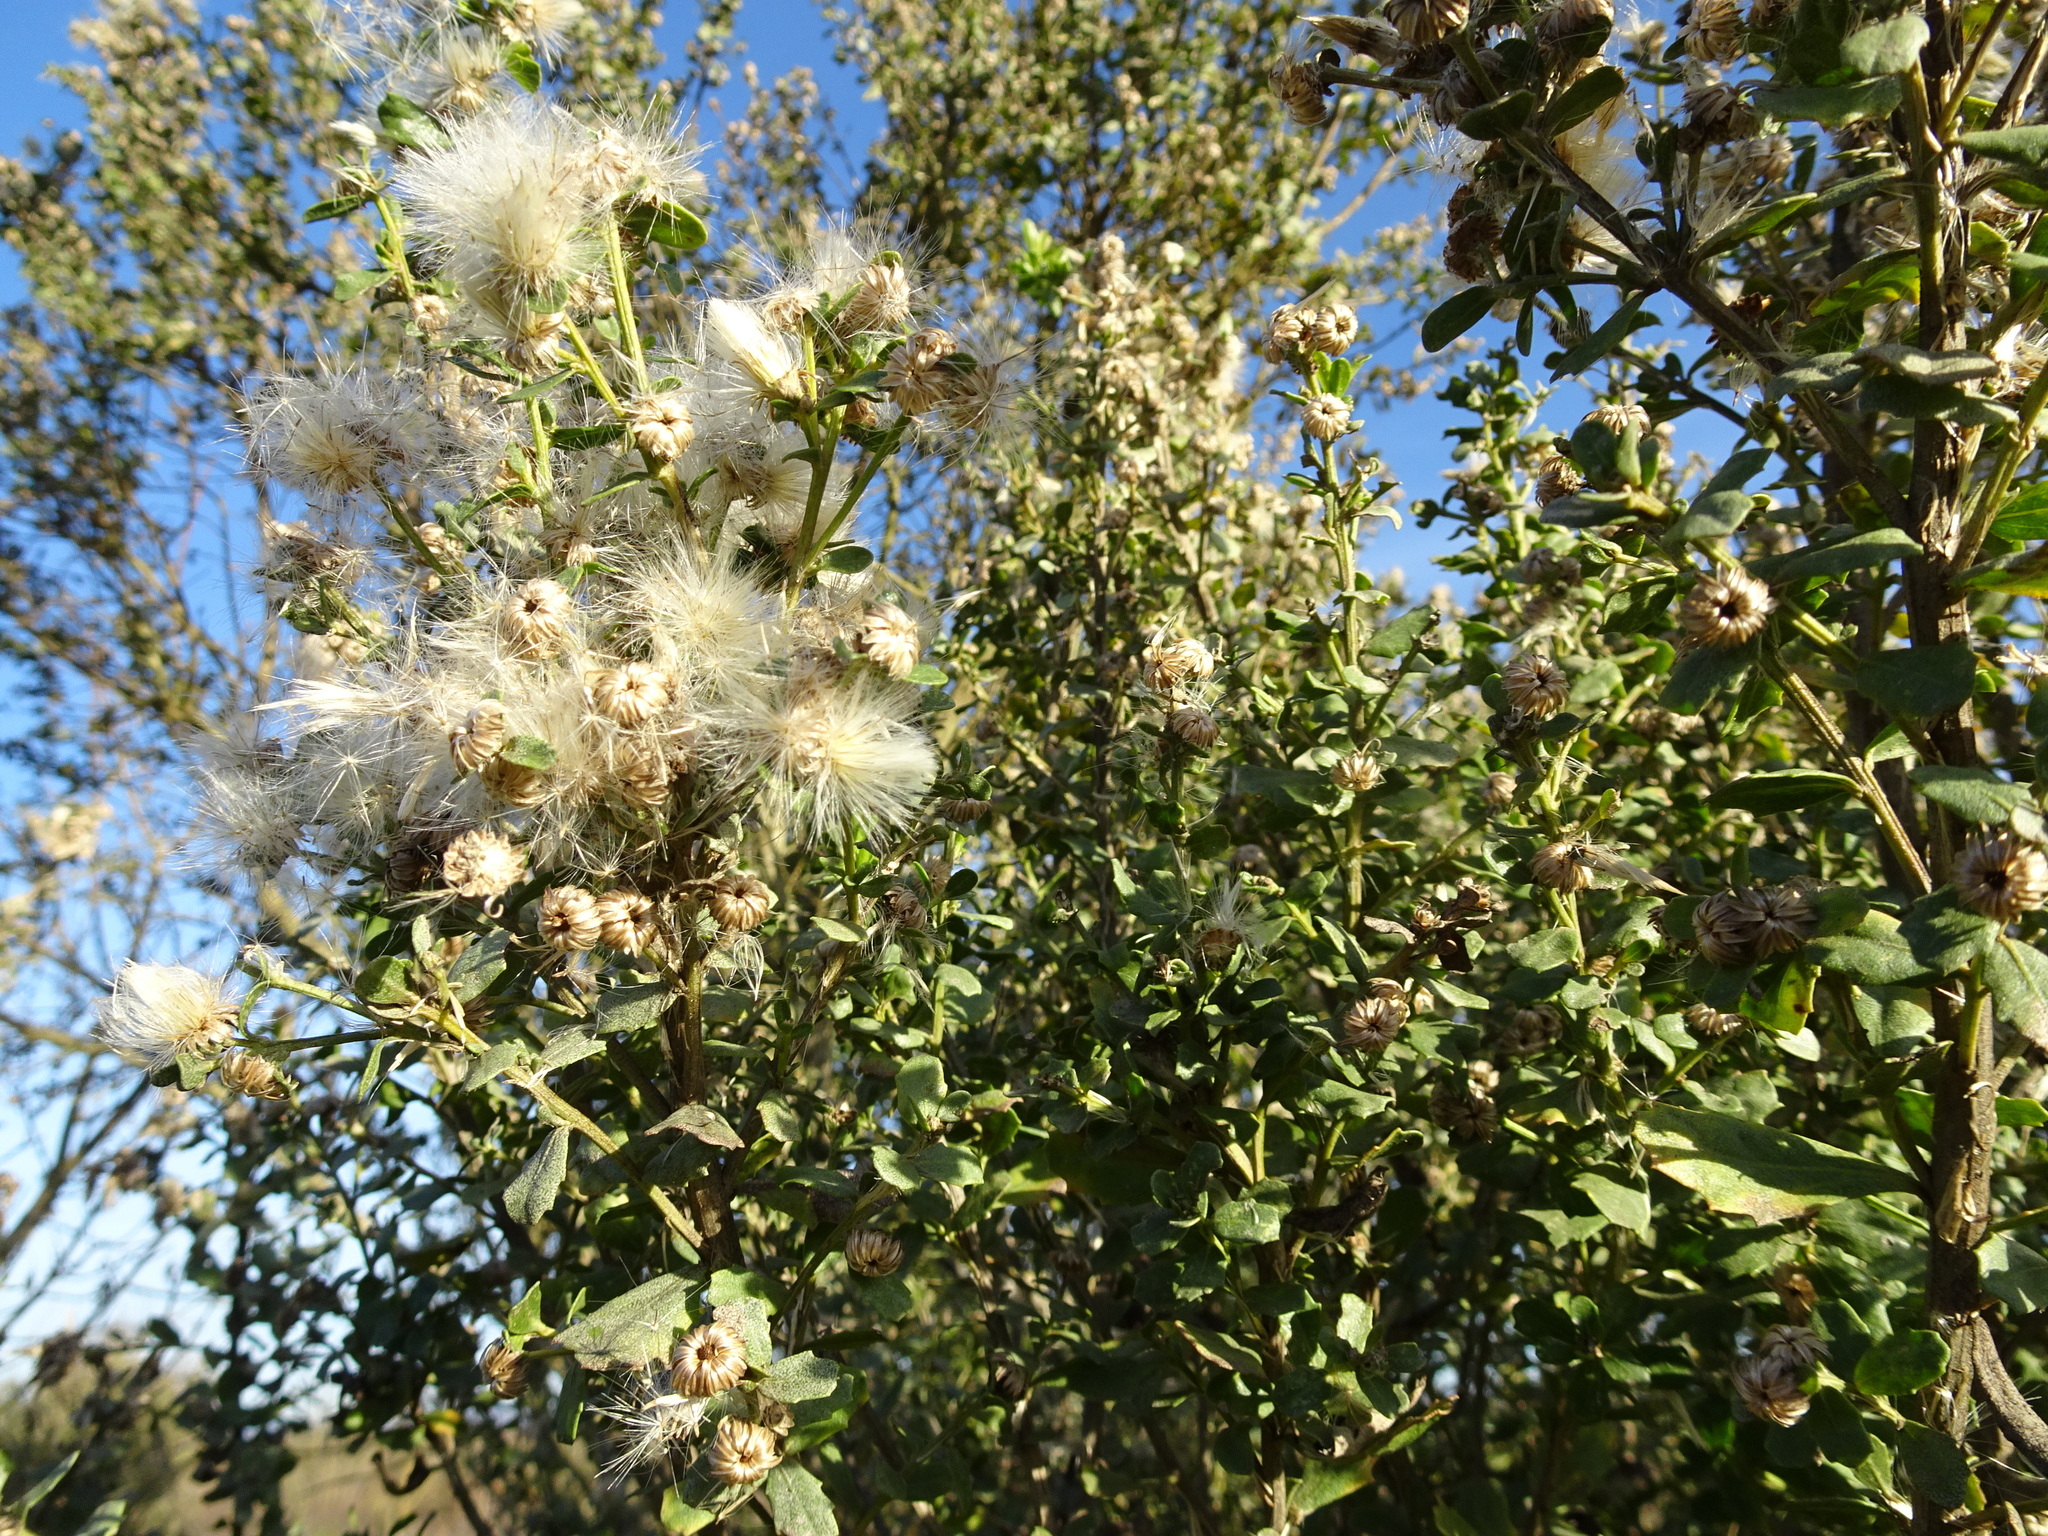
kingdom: Plantae
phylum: Tracheophyta
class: Magnoliopsida
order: Asterales
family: Asteraceae
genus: Baccharis
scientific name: Baccharis pilularis
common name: Coyotebrush
